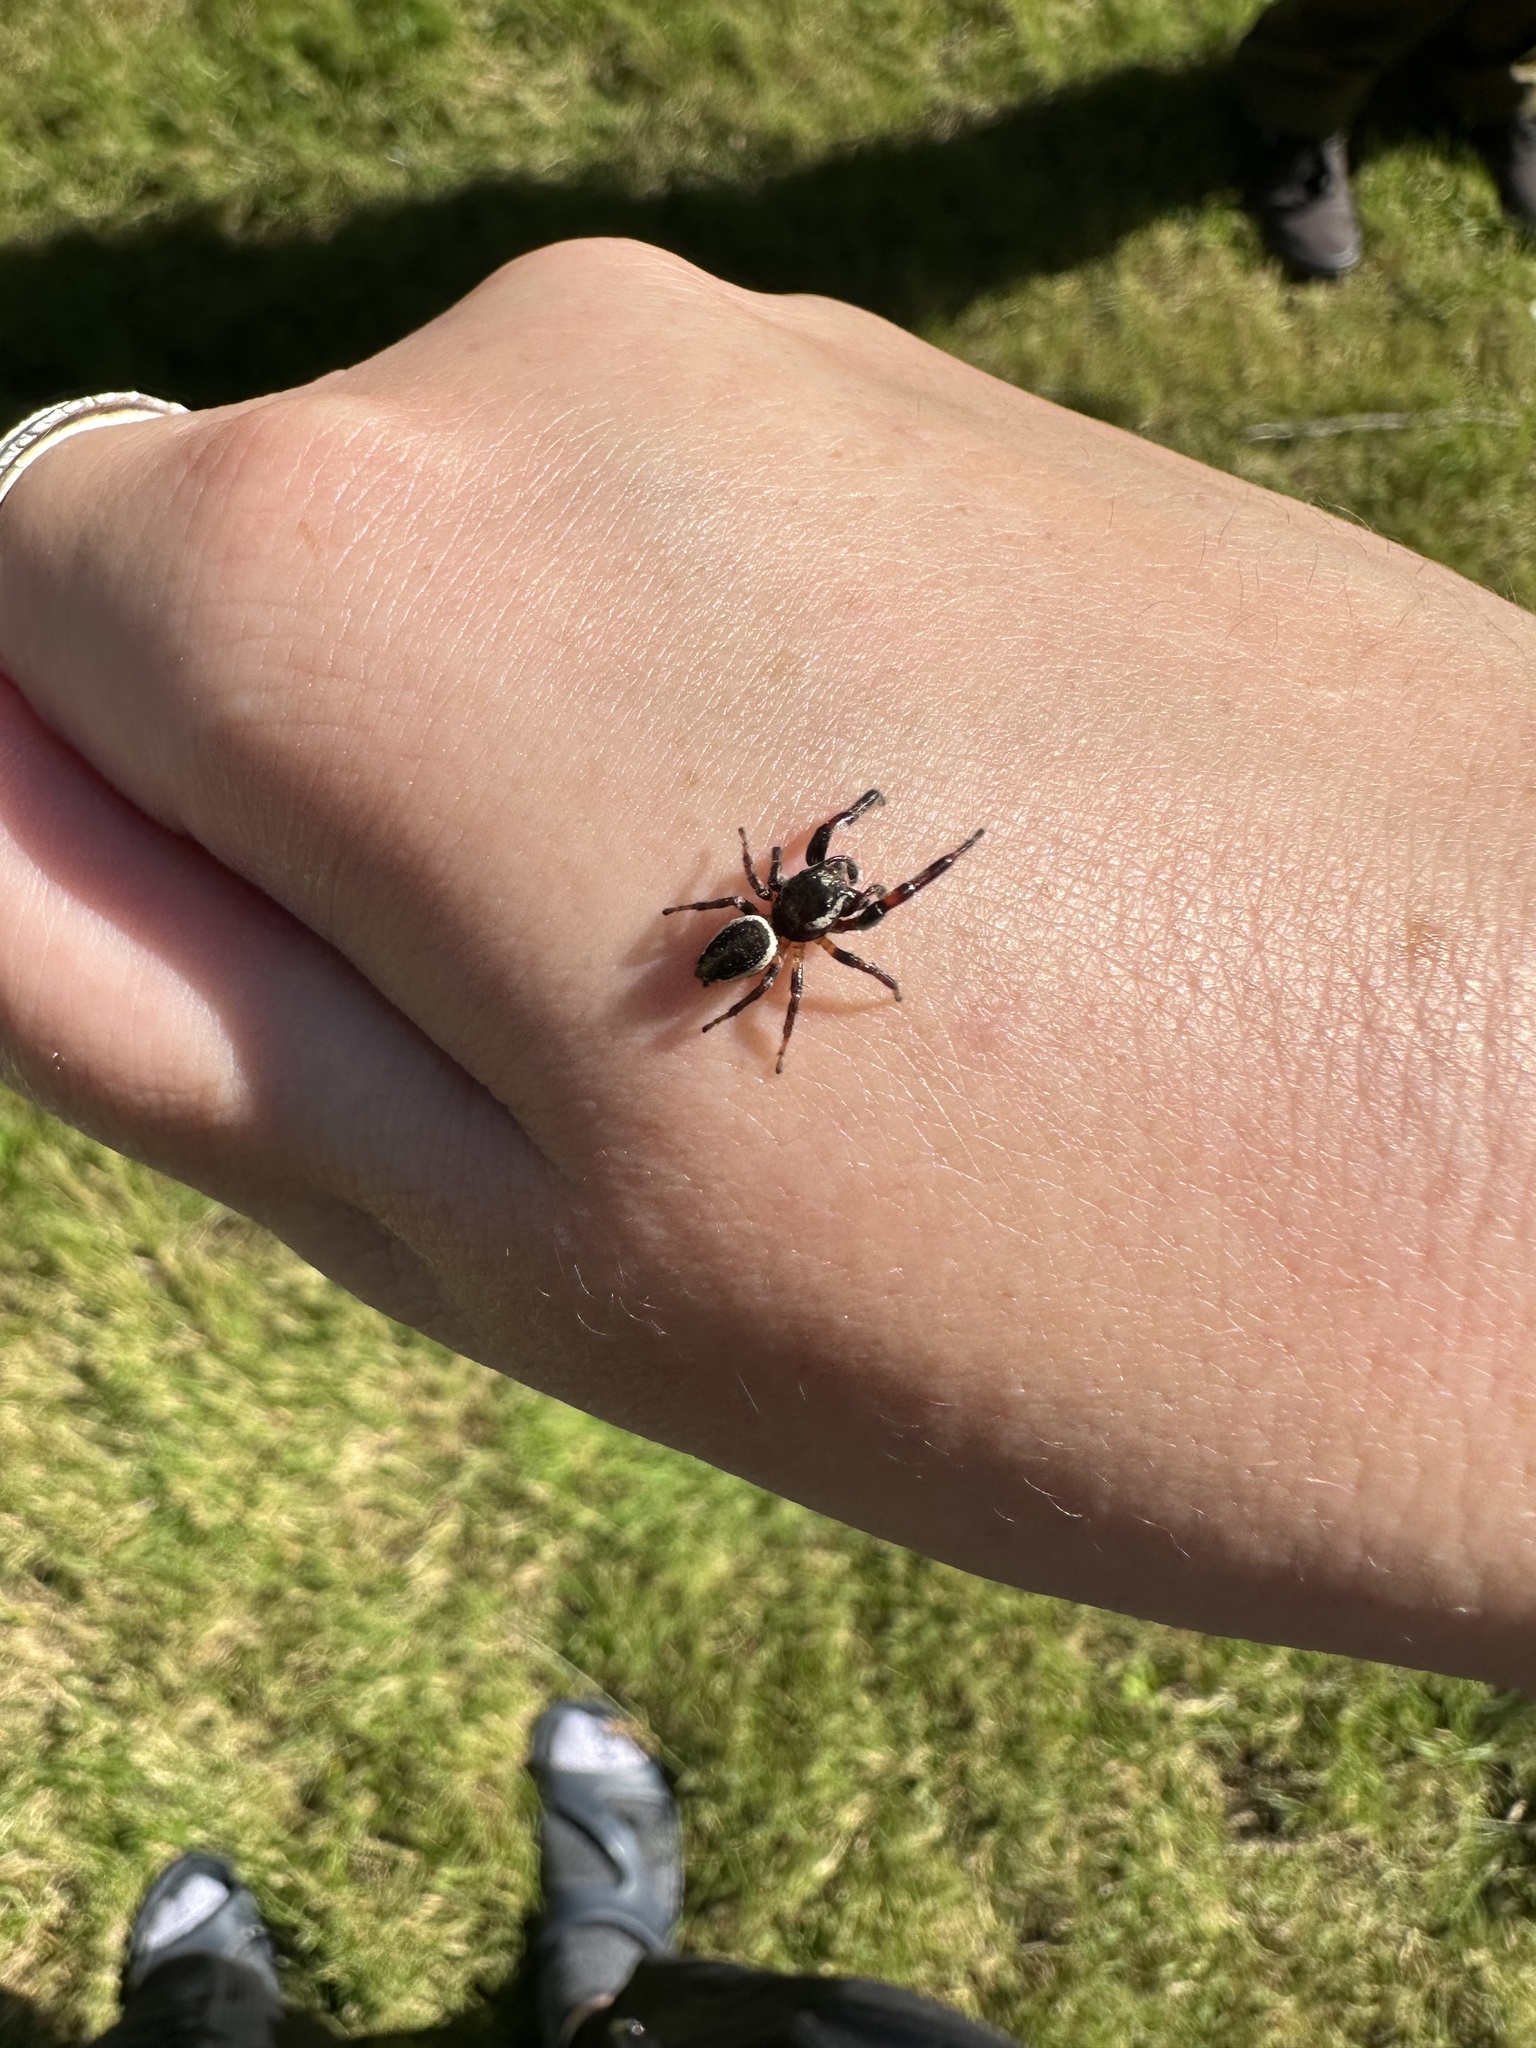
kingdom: Animalia
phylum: Arthropoda
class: Arachnida
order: Araneae
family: Salticidae
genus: Eris
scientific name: Eris militaris
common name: Bronze jumper
